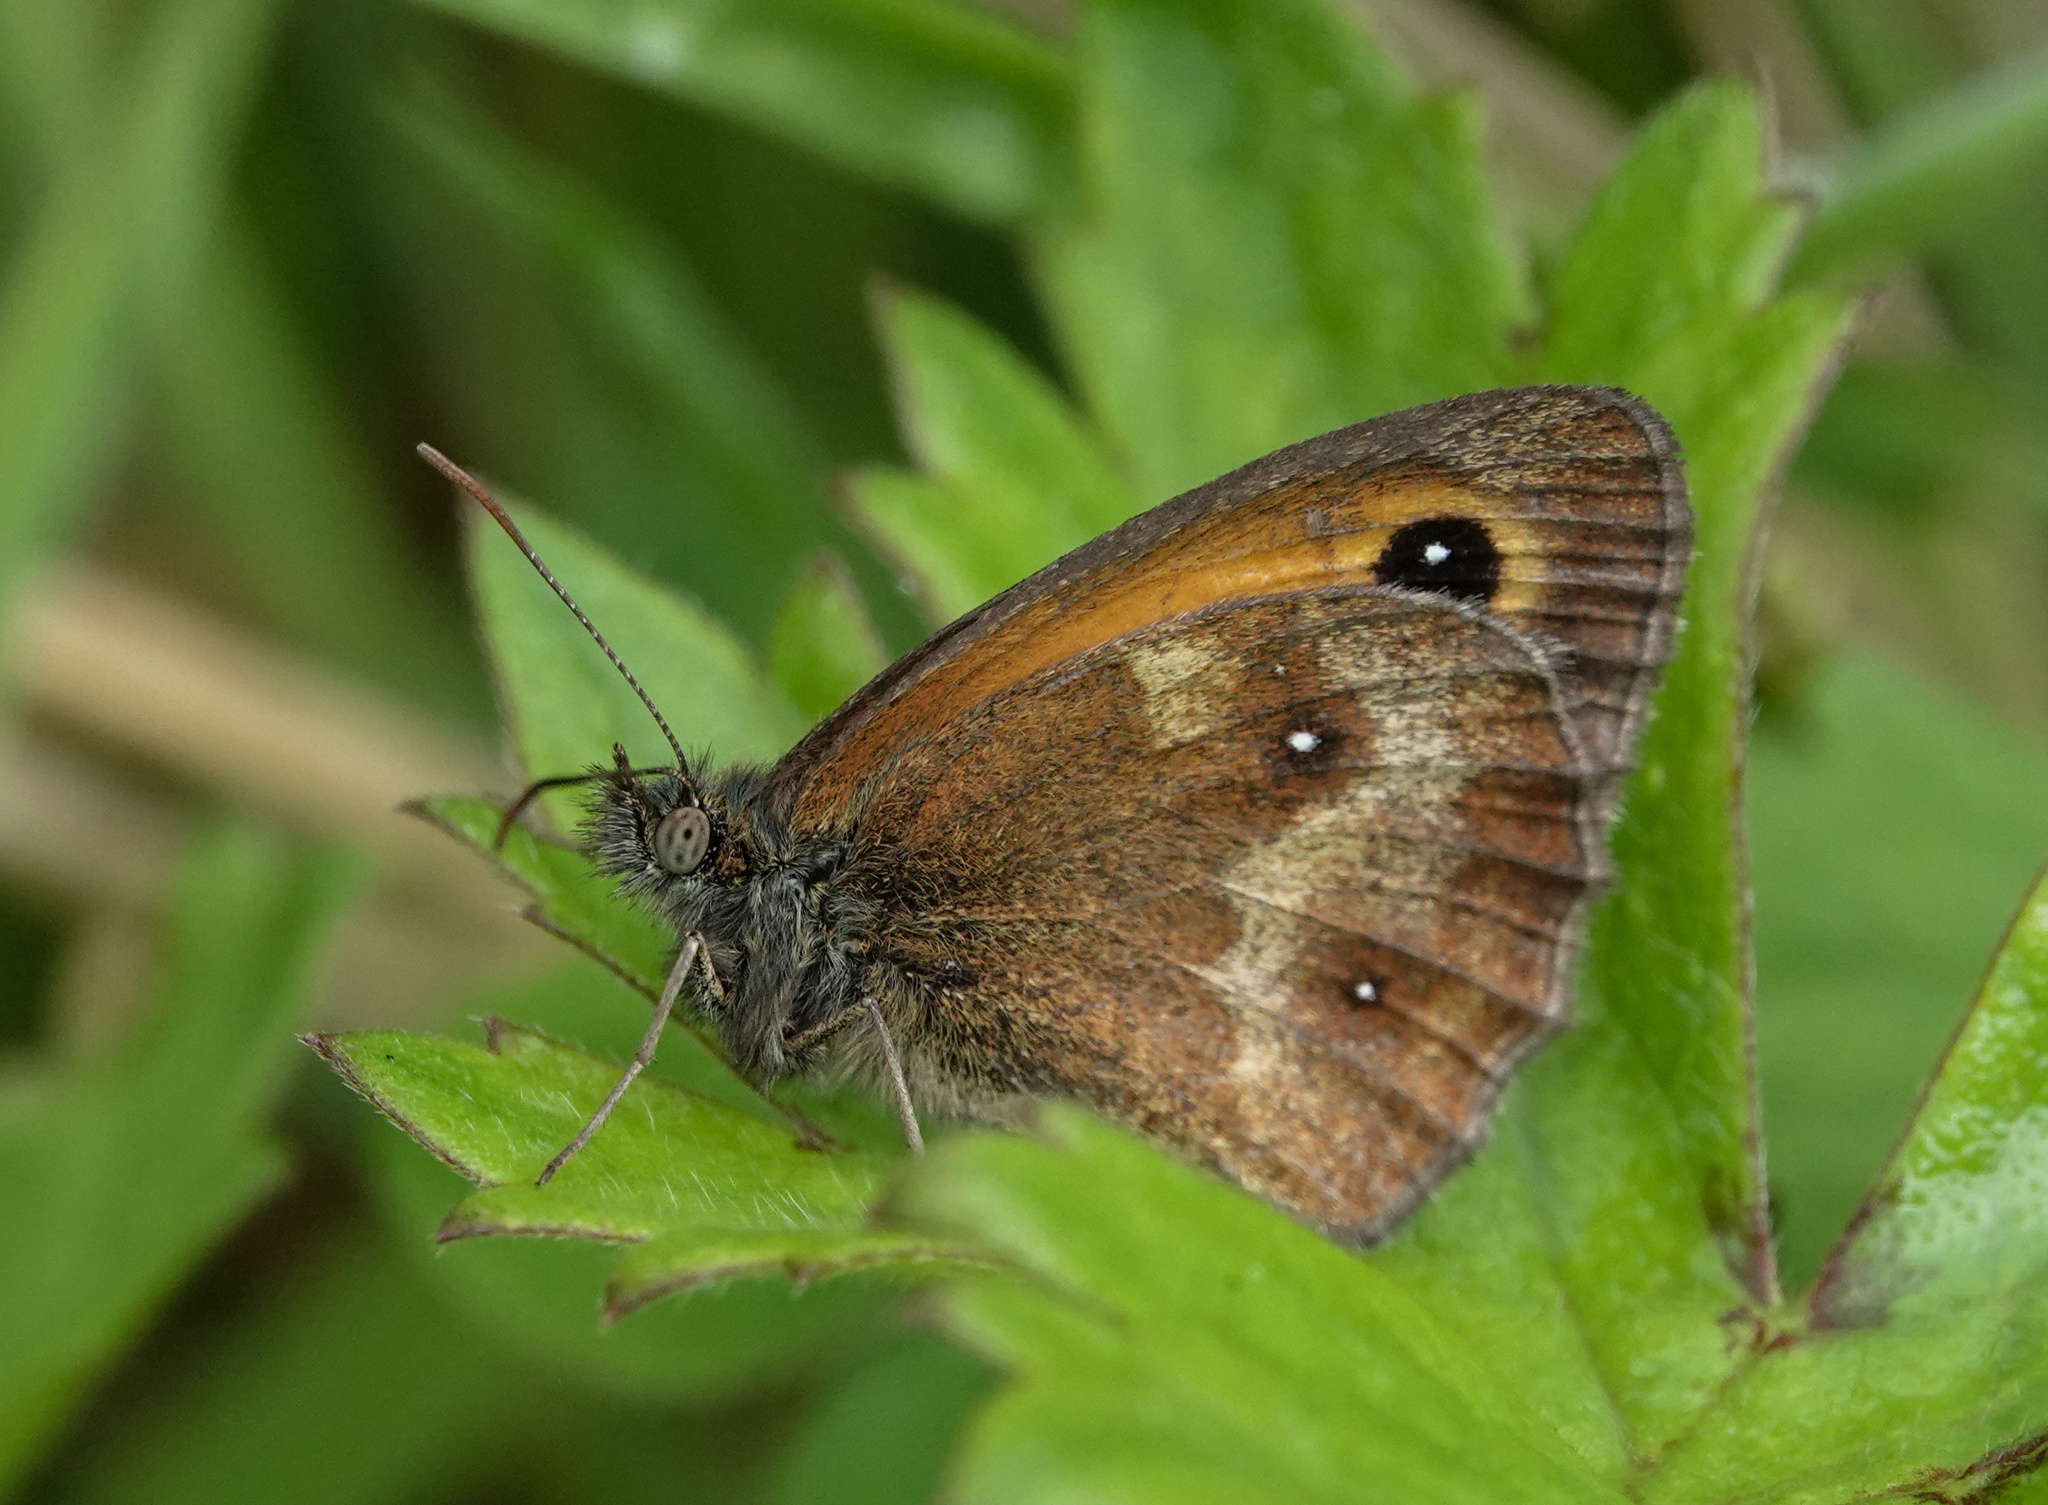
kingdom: Animalia
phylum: Arthropoda
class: Insecta
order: Lepidoptera
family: Nymphalidae
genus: Pyronia
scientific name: Pyronia tithonus
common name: Gatekeeper
